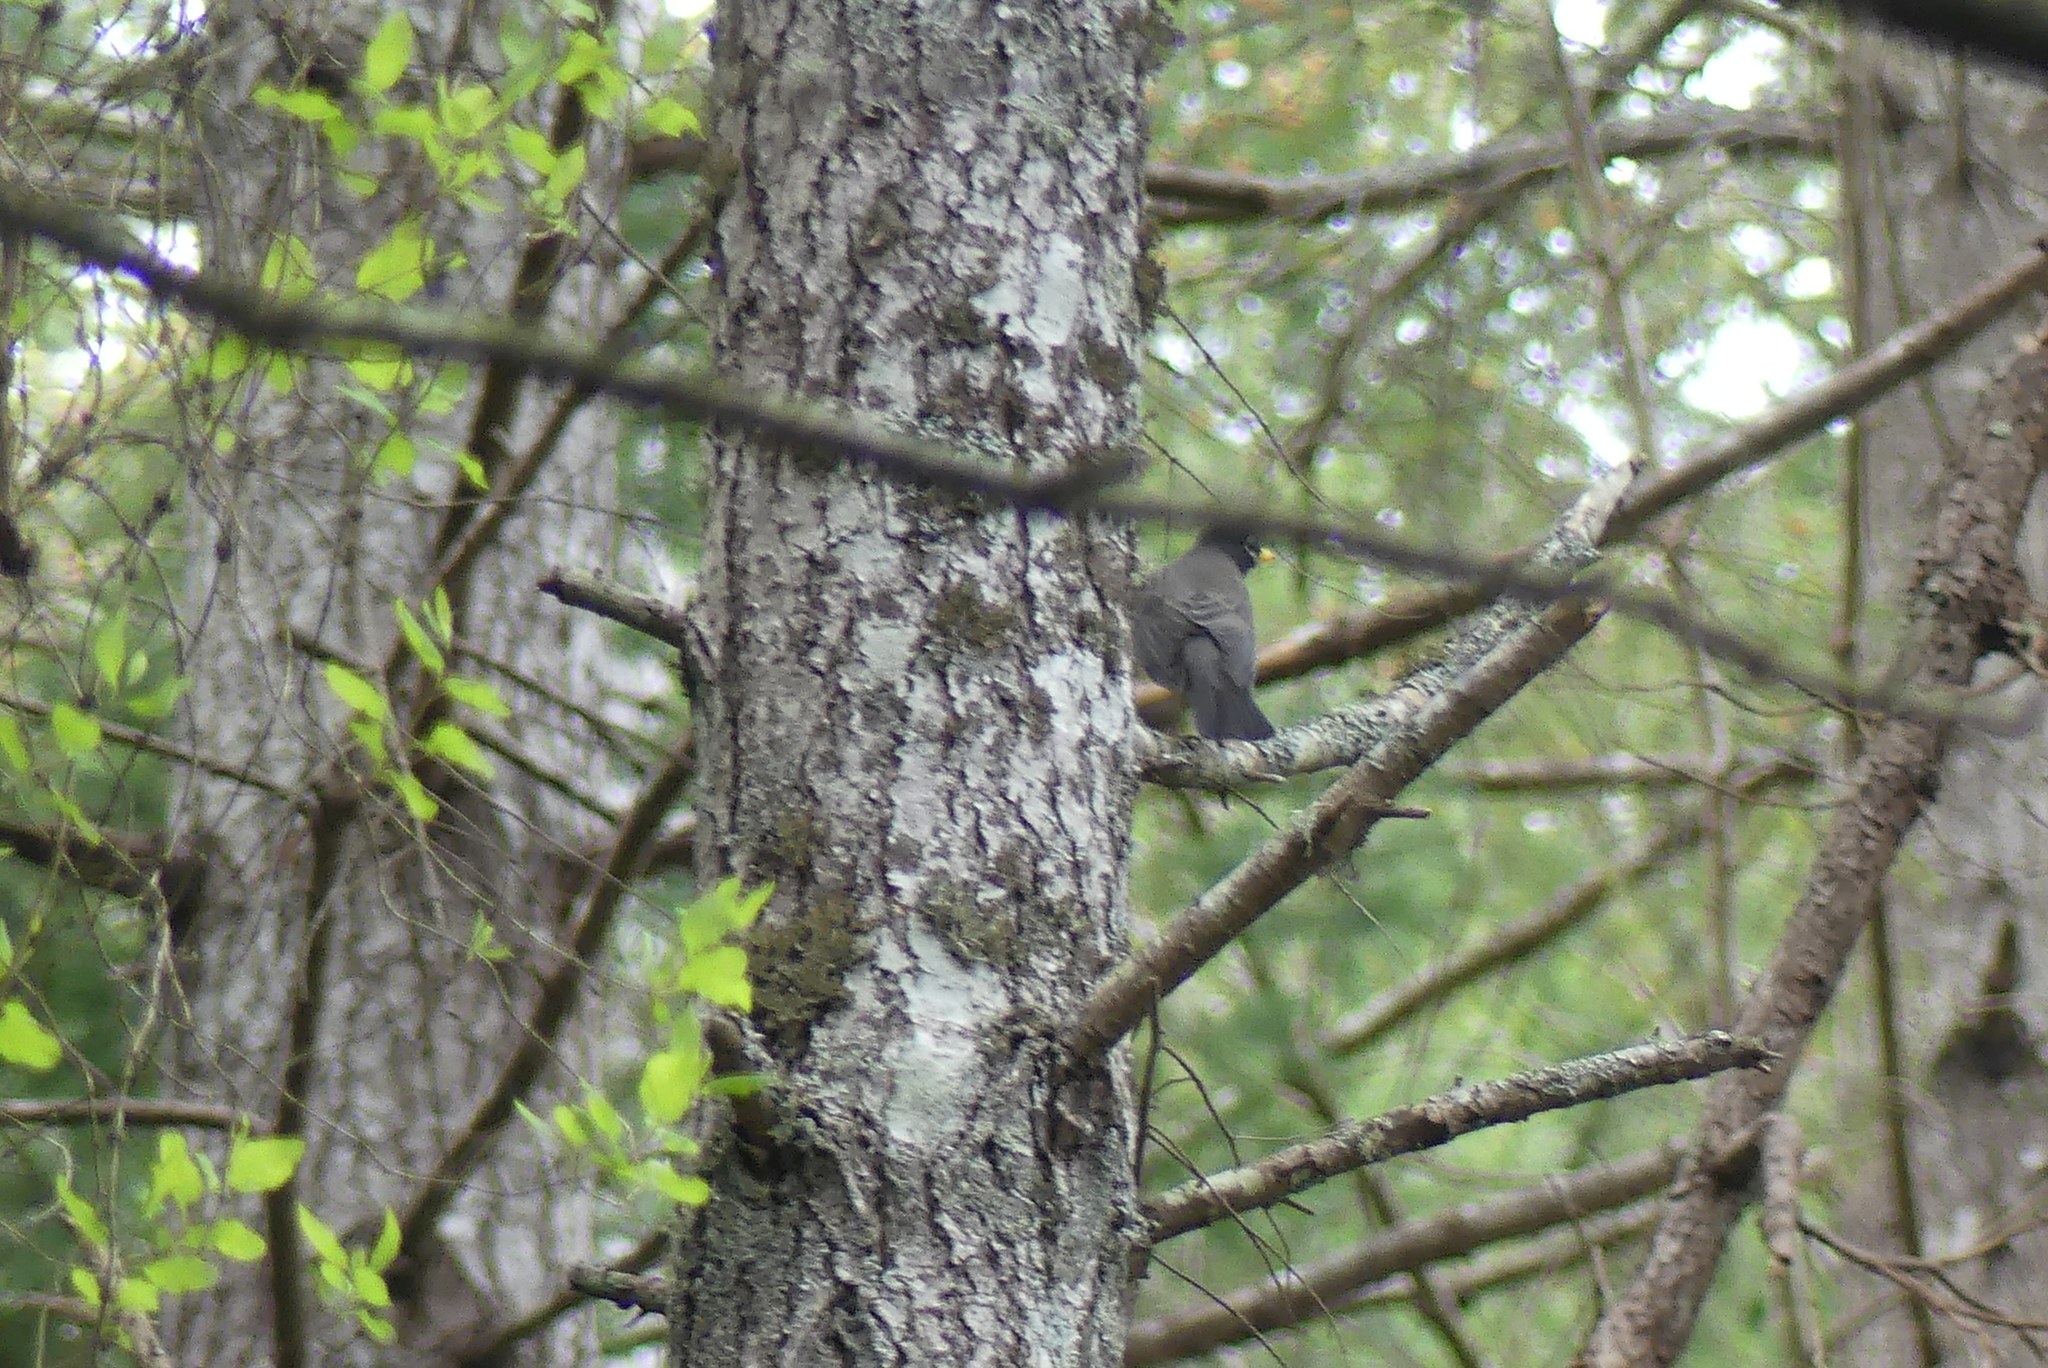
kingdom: Animalia
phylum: Chordata
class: Aves
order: Passeriformes
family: Turdidae
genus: Turdus
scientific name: Turdus migratorius
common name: American robin
